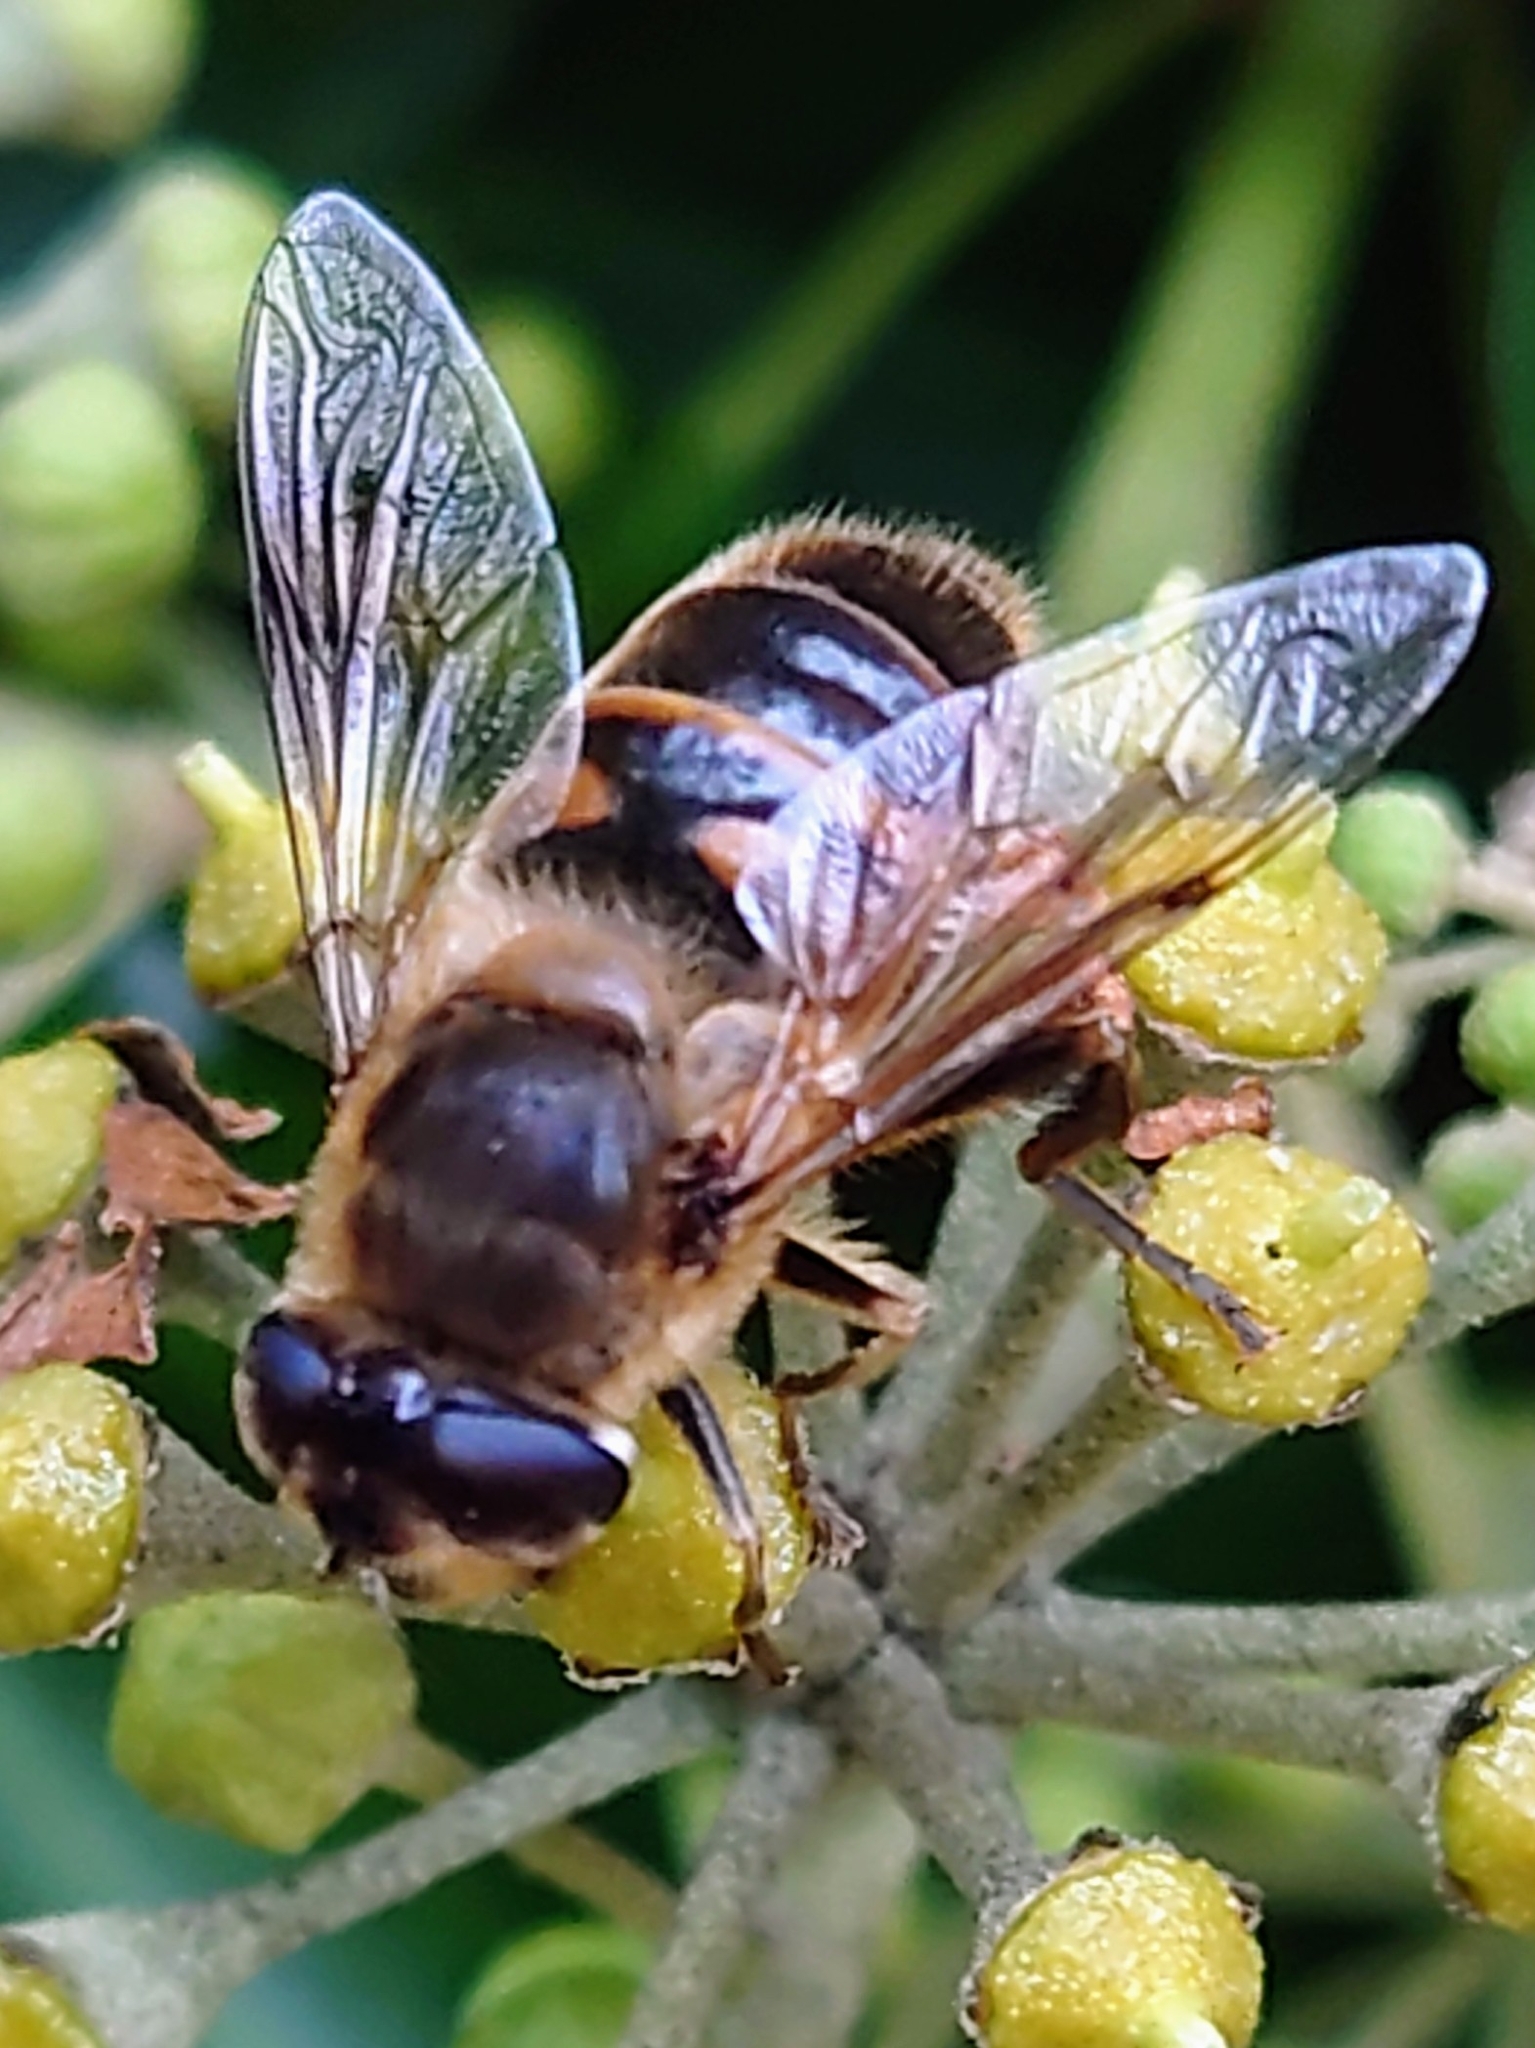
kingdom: Animalia
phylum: Arthropoda
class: Insecta
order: Diptera
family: Syrphidae
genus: Eristalis
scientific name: Eristalis tenax
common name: Drone fly
